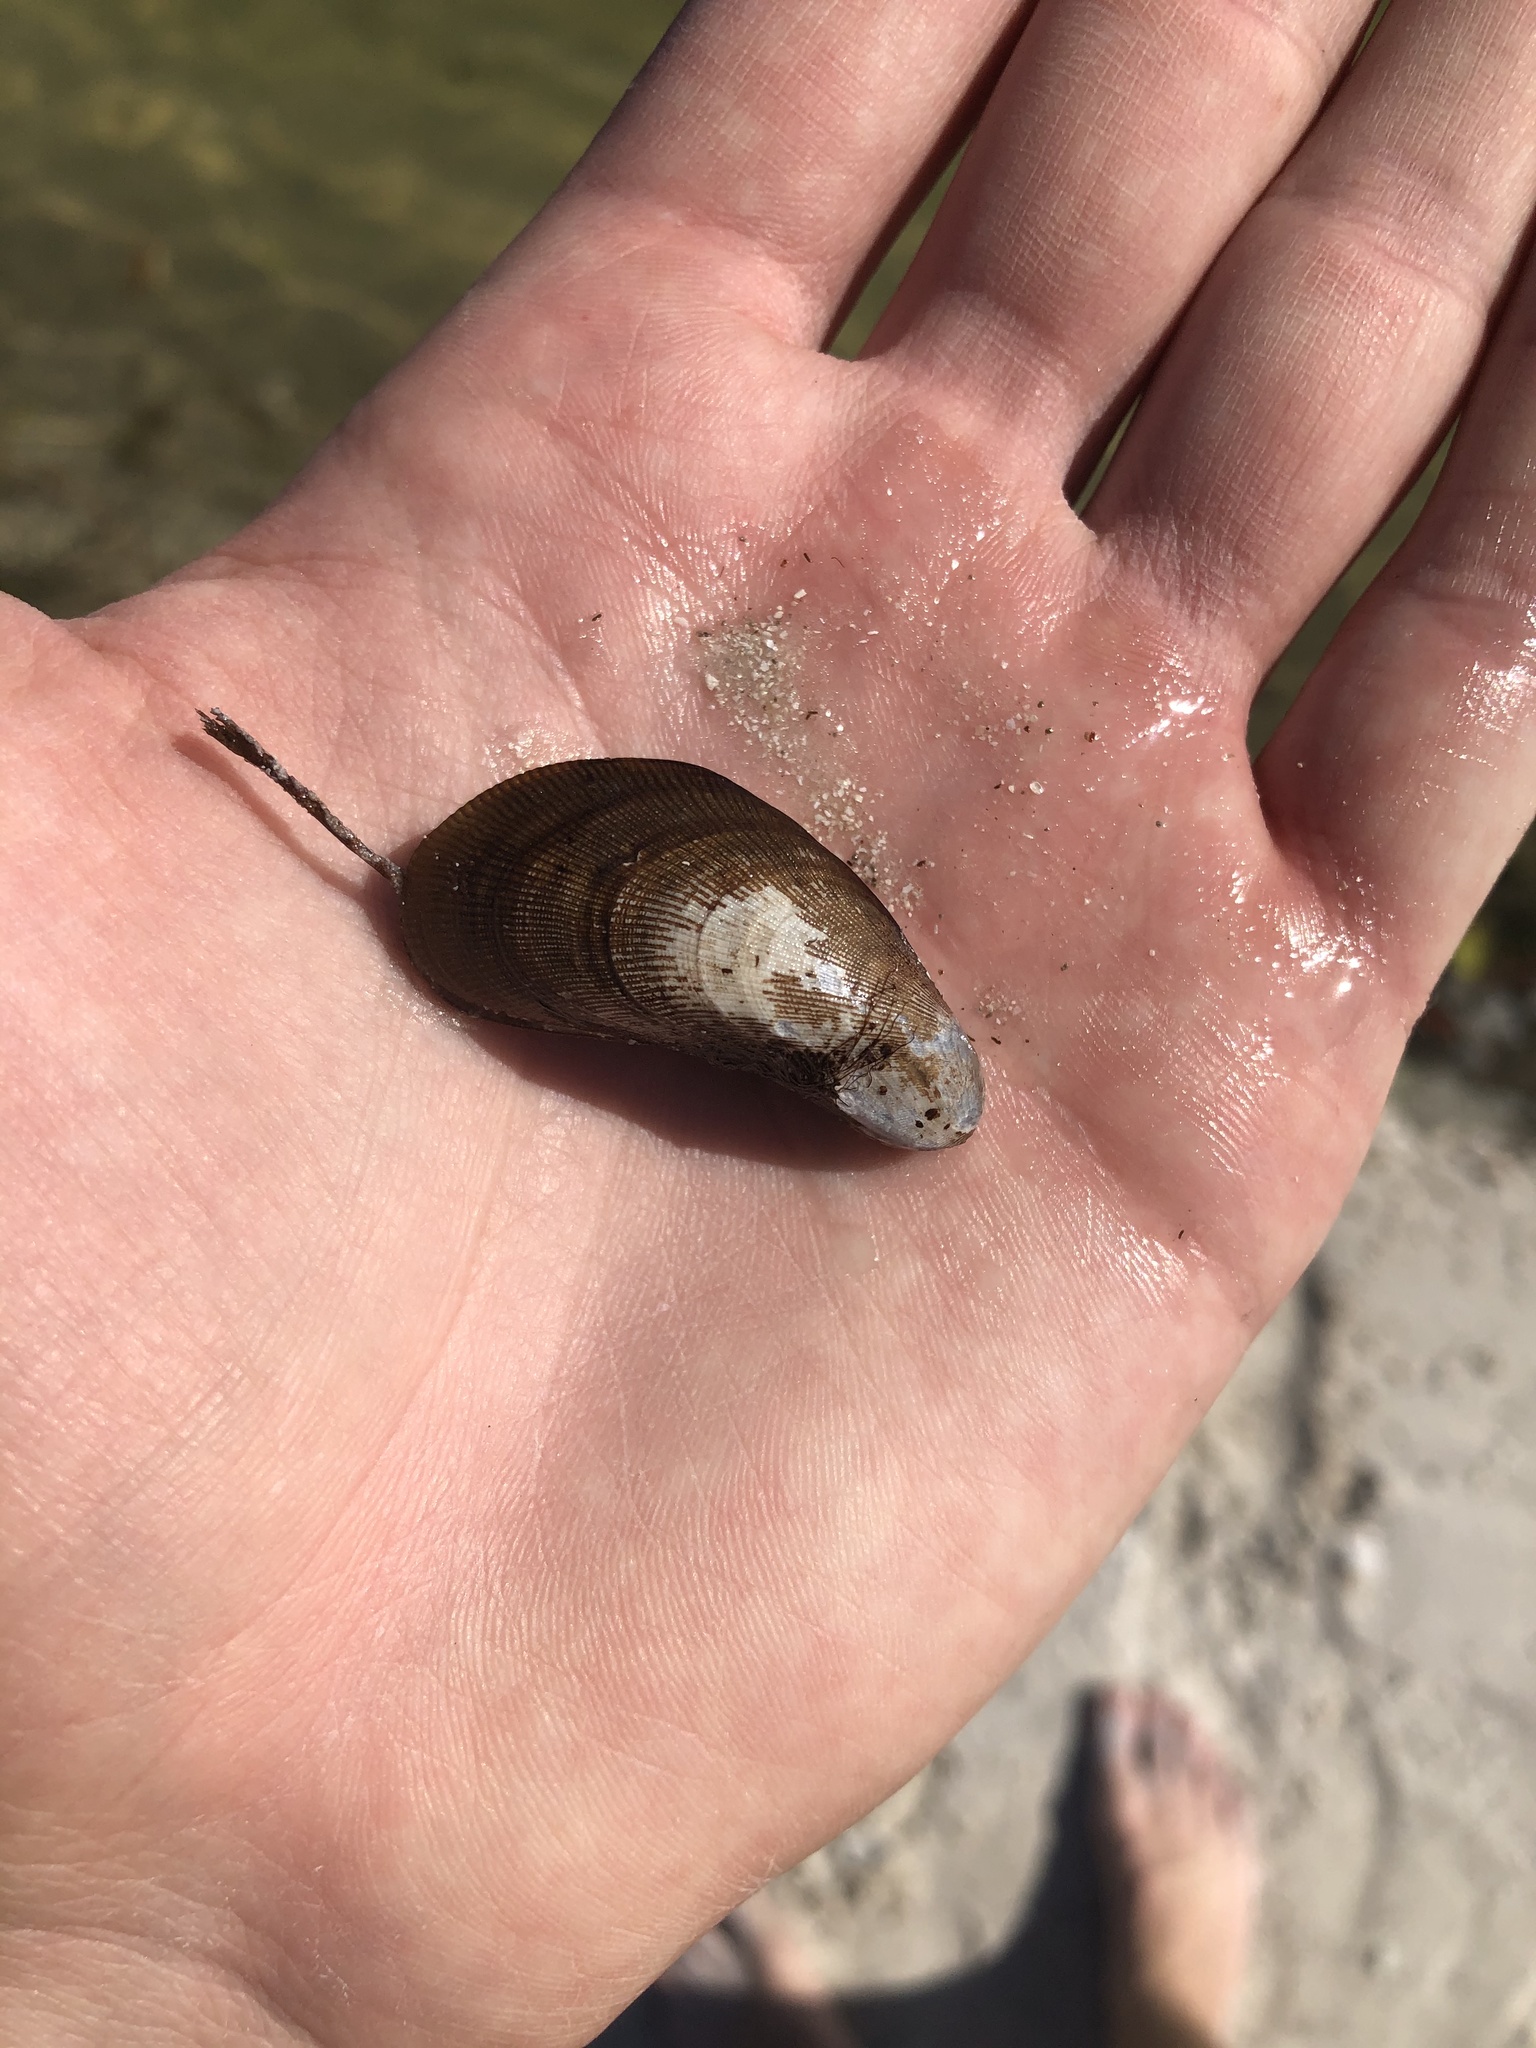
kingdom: Animalia
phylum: Mollusca
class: Bivalvia
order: Mytilida
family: Mytilidae
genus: Geukensia
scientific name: Geukensia granosissima
